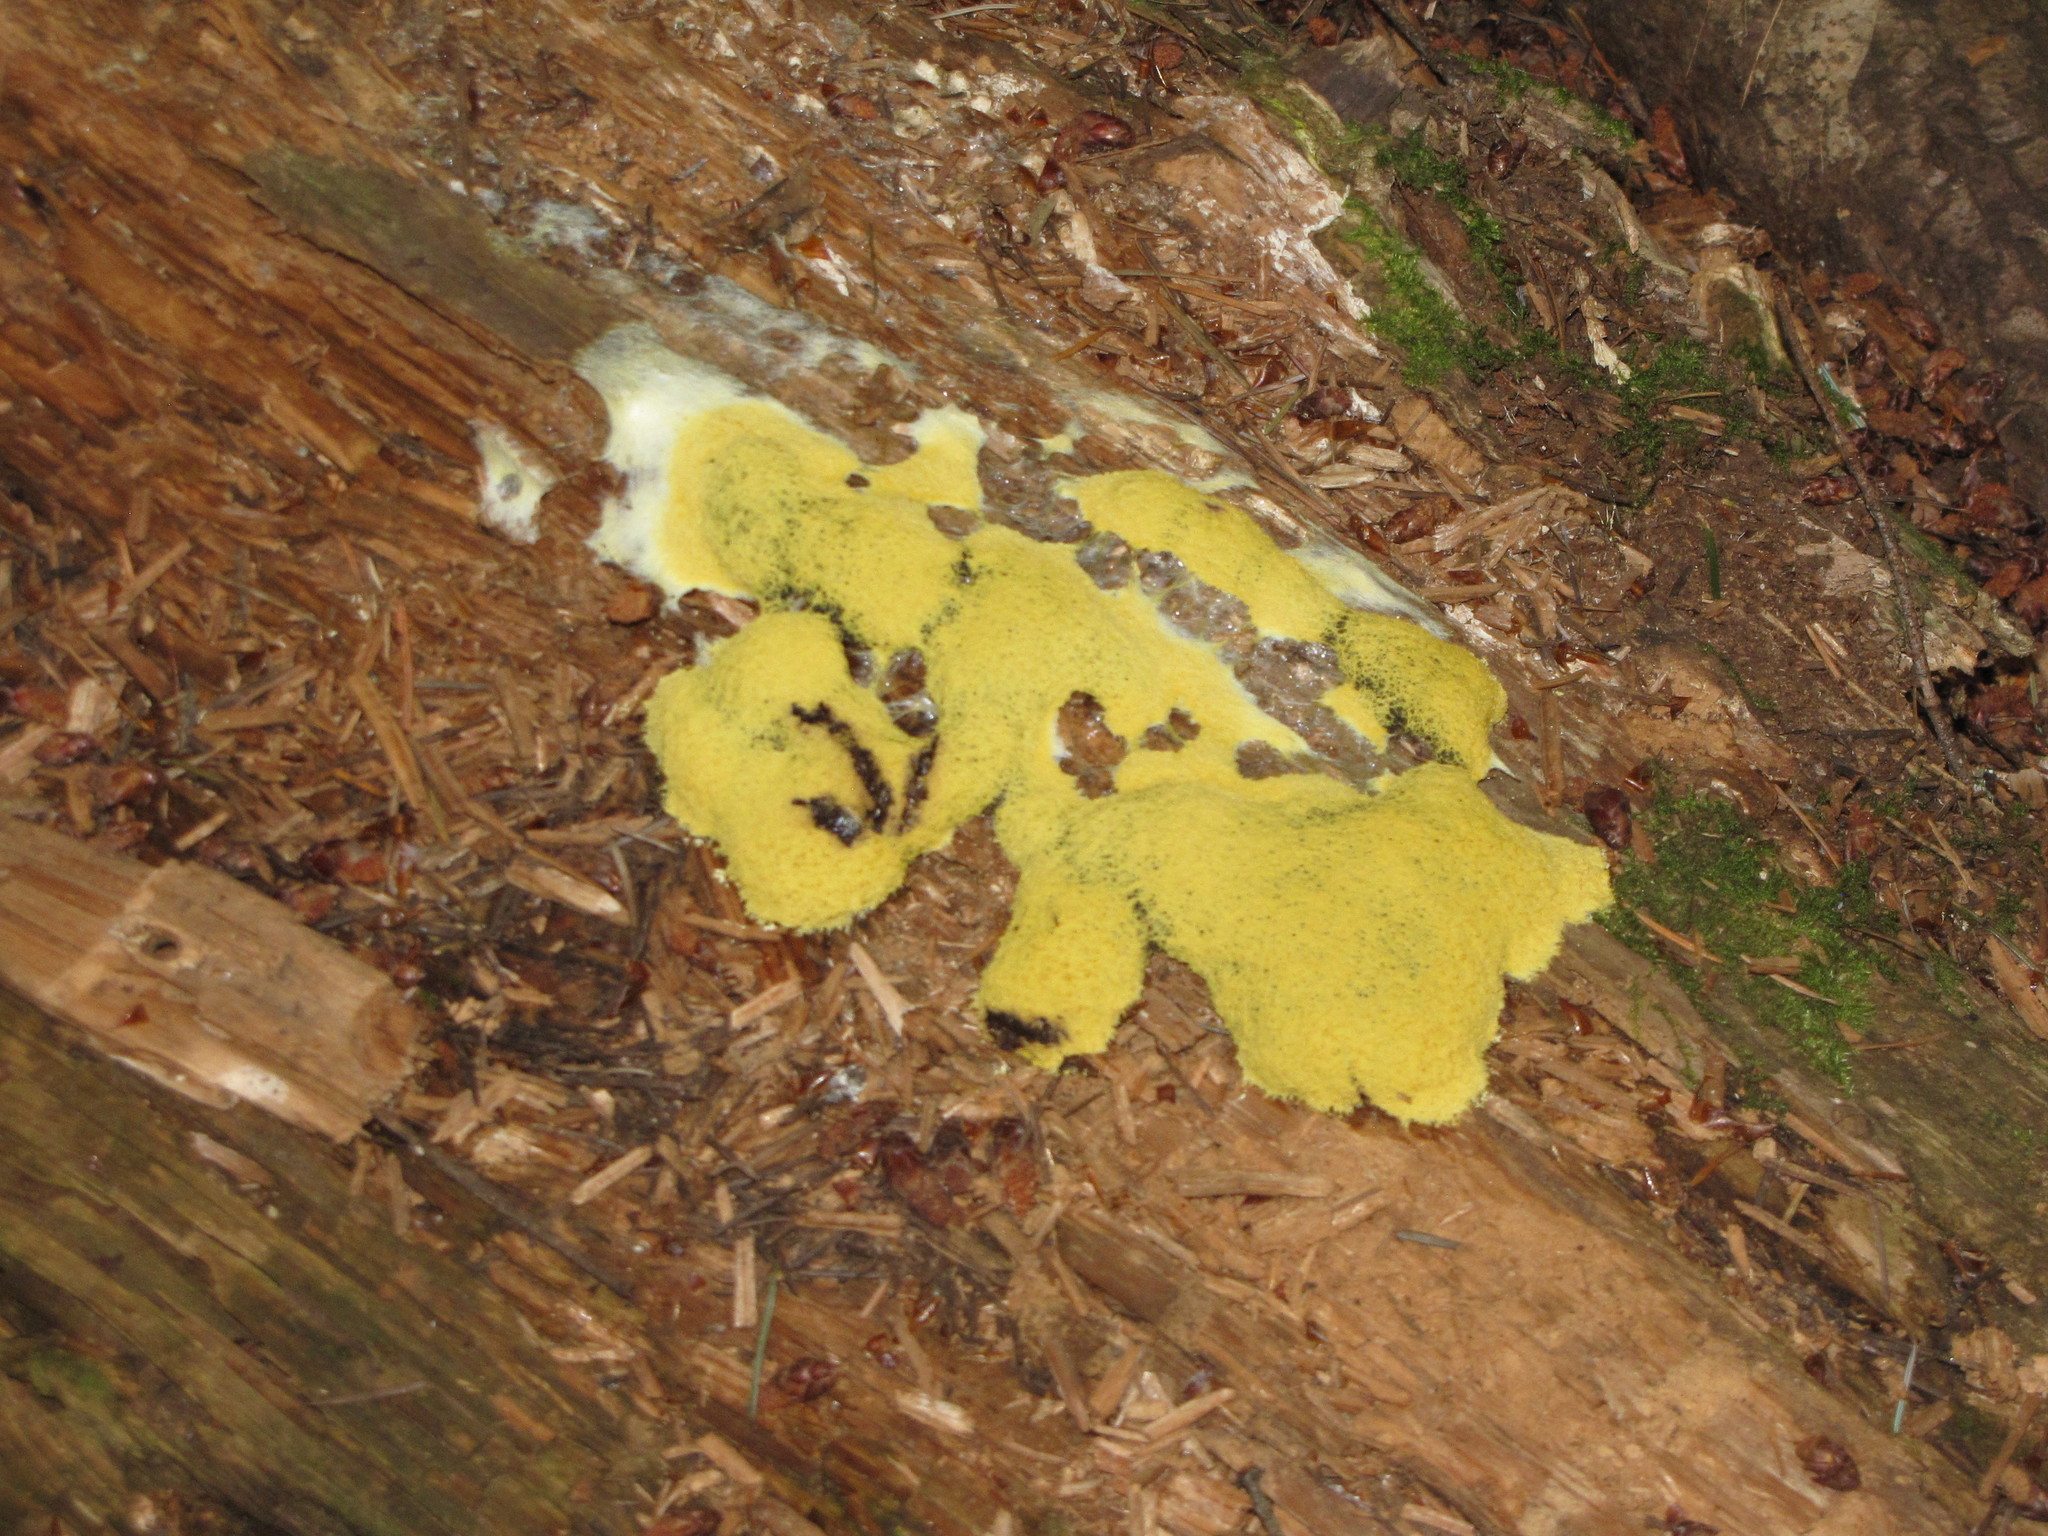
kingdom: Protozoa
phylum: Mycetozoa
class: Myxomycetes
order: Physarales
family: Physaraceae
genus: Fuligo
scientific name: Fuligo septica
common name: Dog vomit slime mold
